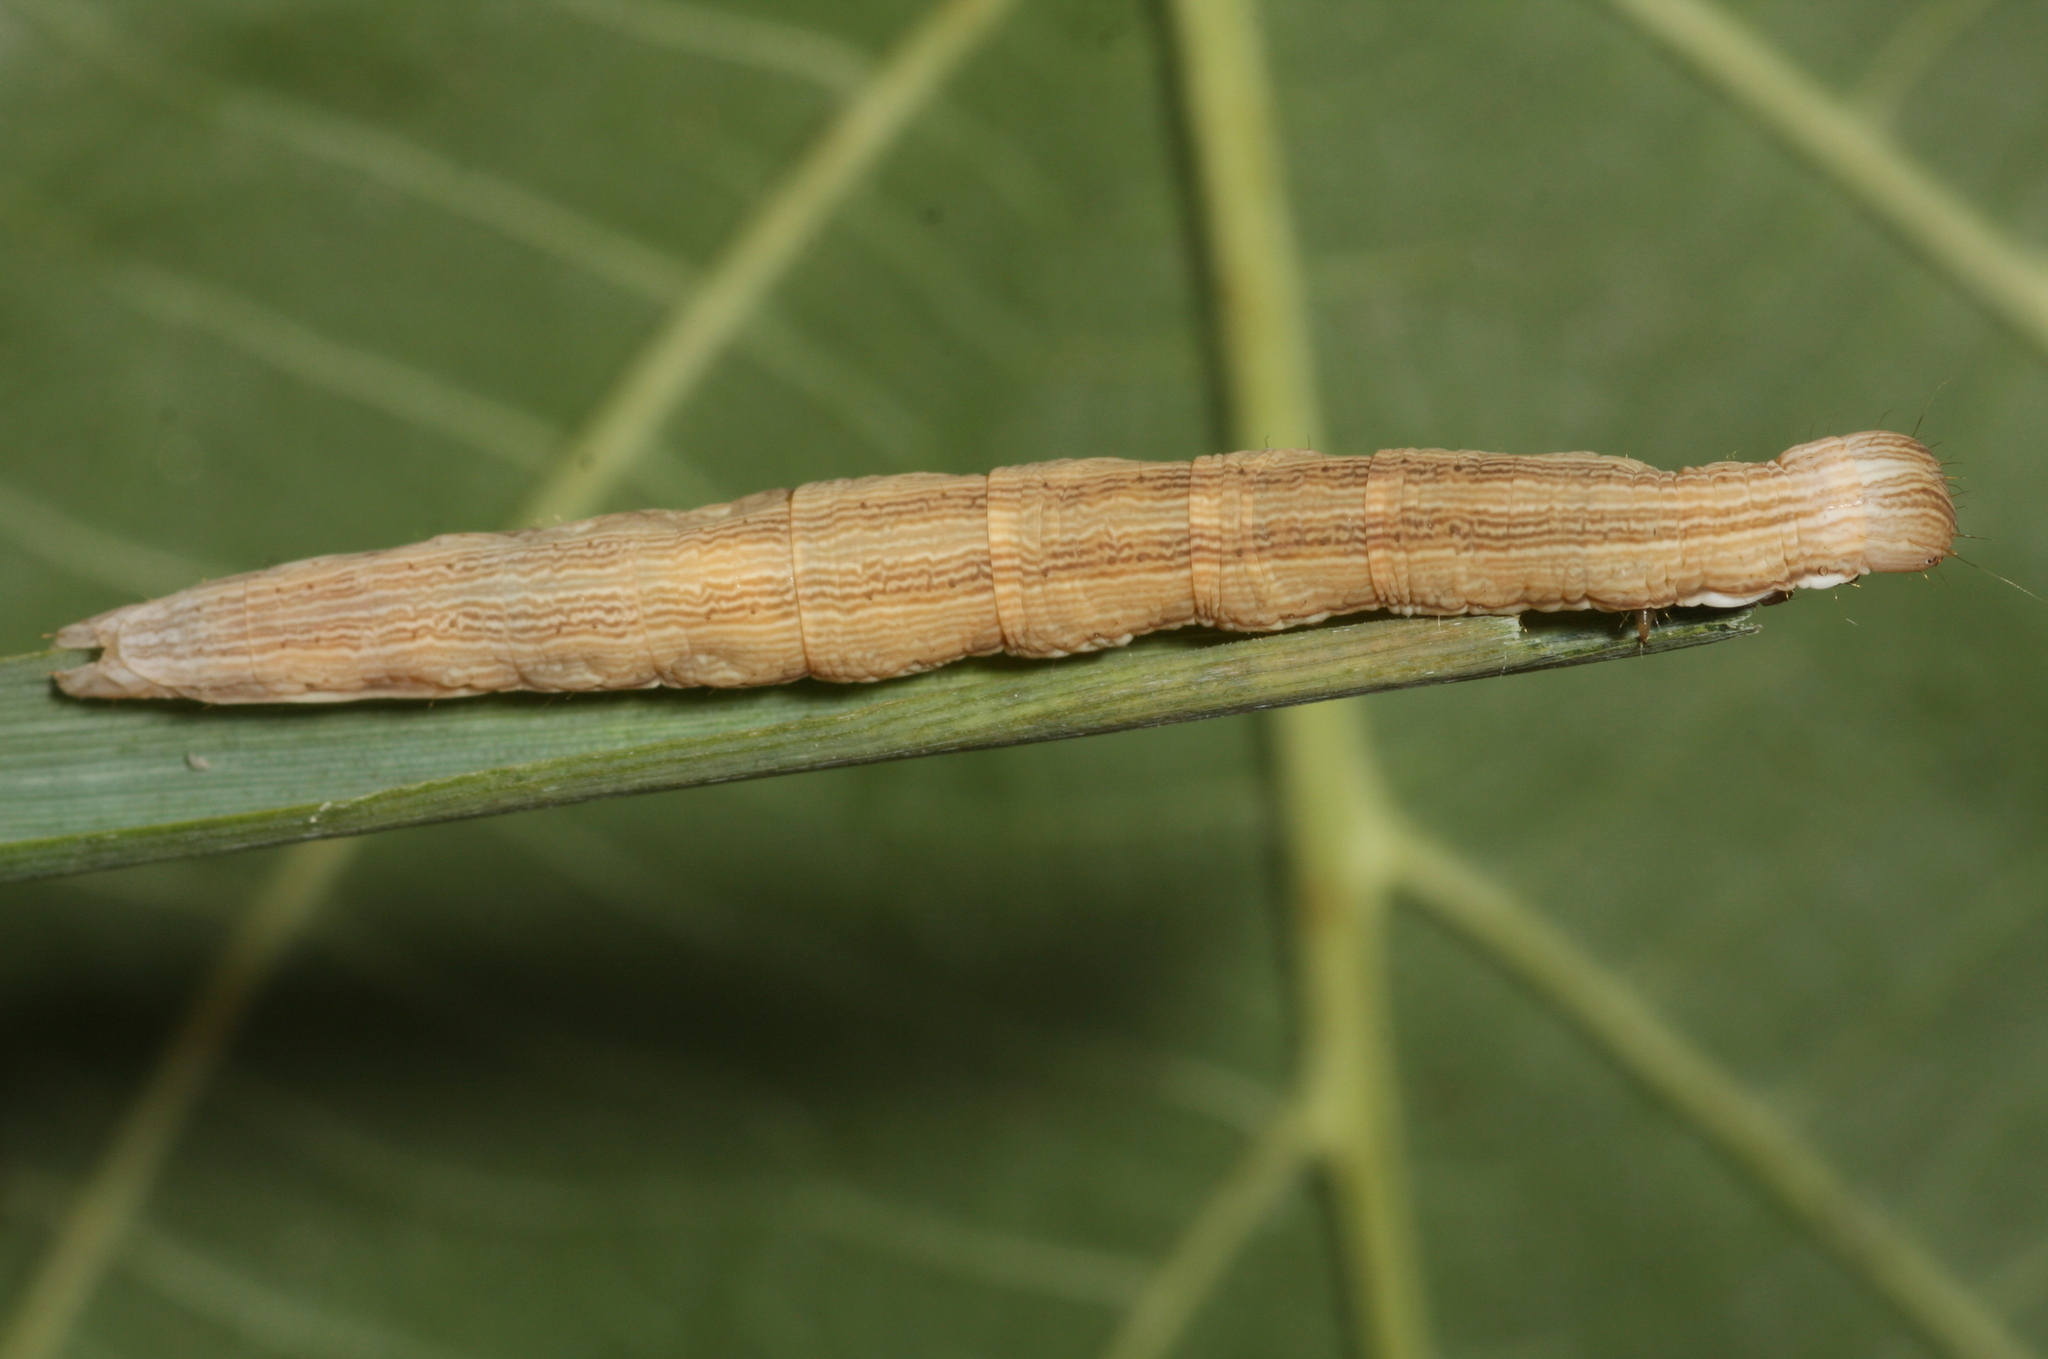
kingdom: Animalia
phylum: Arthropoda
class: Insecta
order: Lepidoptera
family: Erebidae
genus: Callistege
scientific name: Callistege mi
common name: Mother shipton
